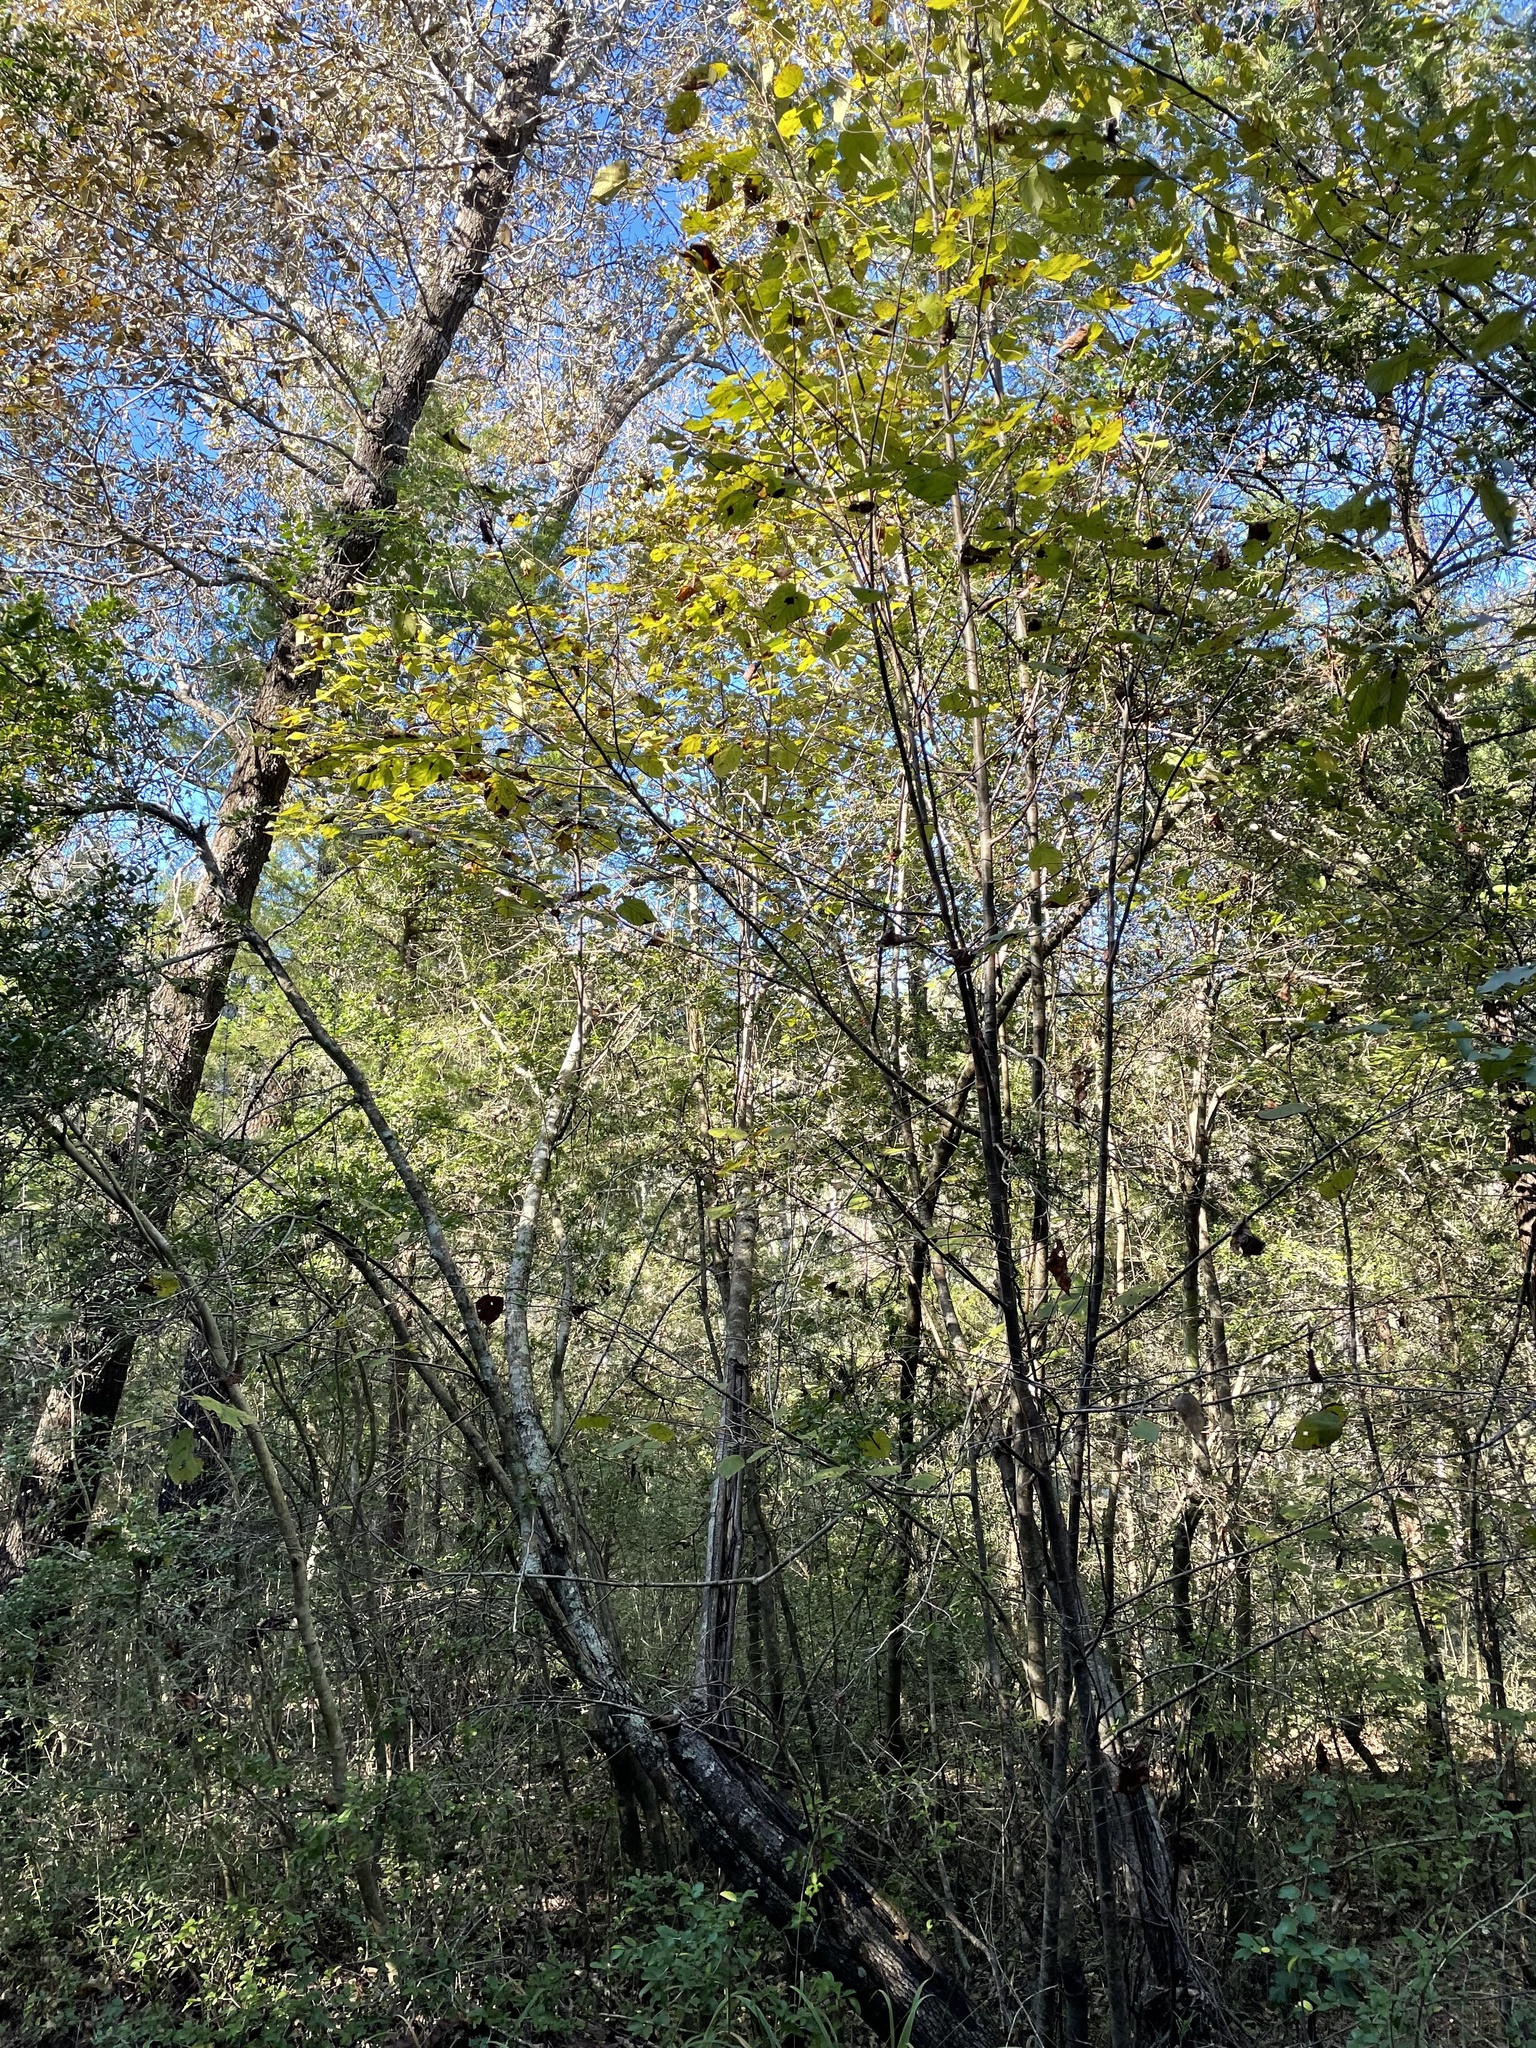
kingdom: Plantae
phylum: Tracheophyta
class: Magnoliopsida
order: Malvales
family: Malvaceae
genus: Tilia
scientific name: Tilia americana
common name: Basswood
